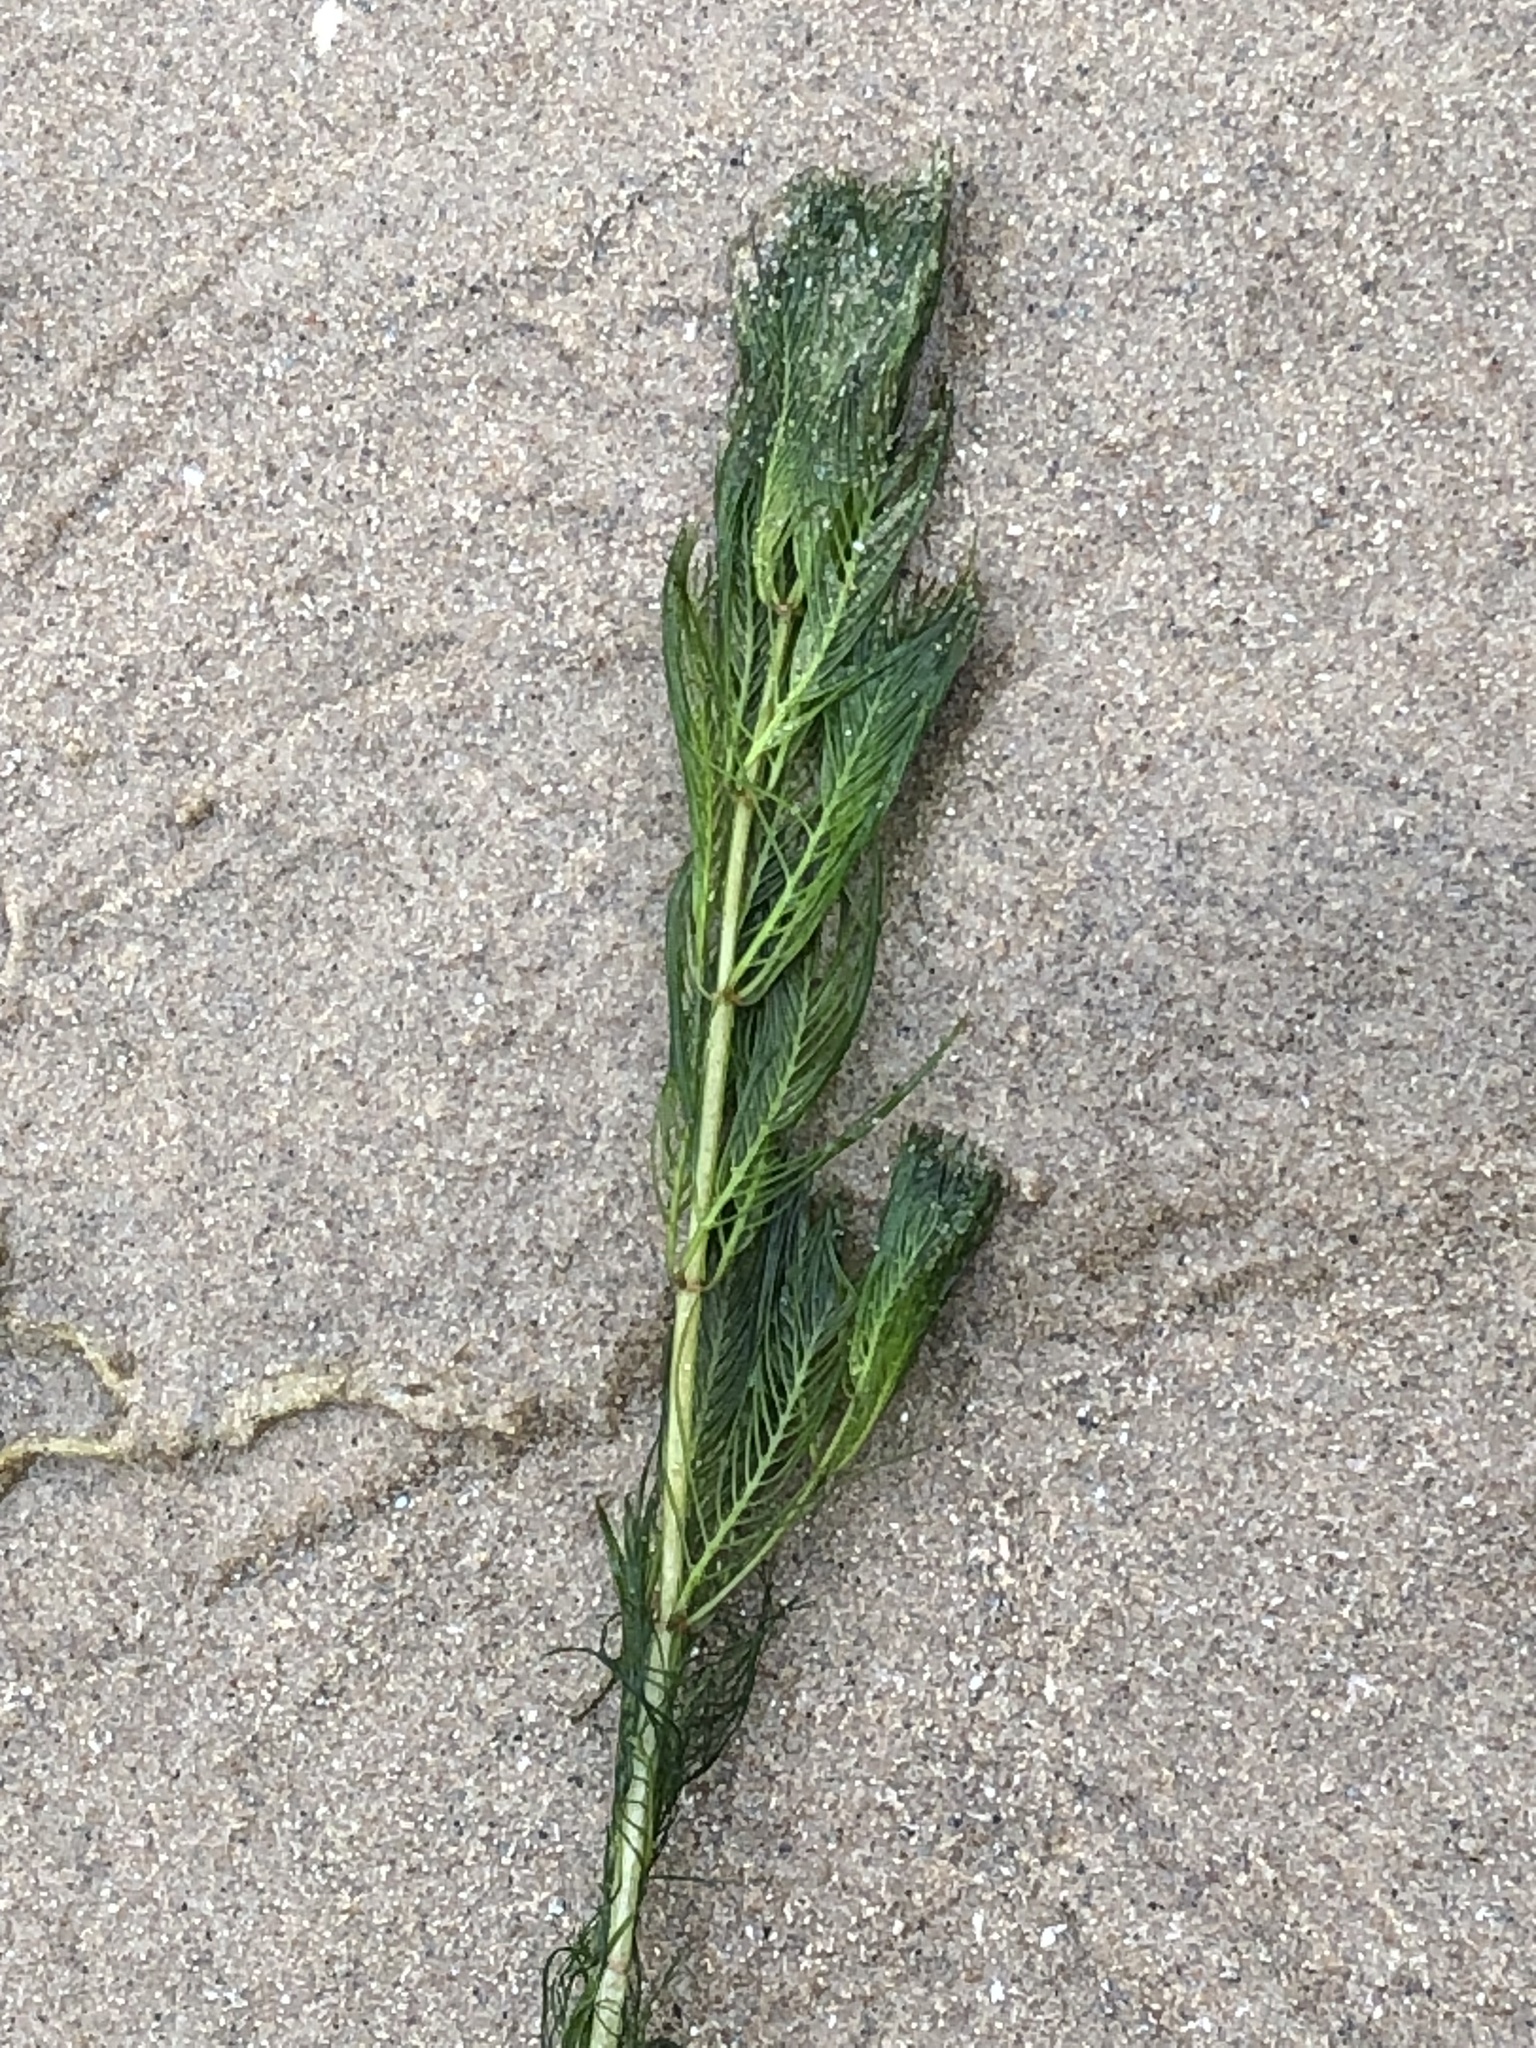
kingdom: Plantae
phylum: Tracheophyta
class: Magnoliopsida
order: Saxifragales
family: Haloragaceae
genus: Myriophyllum
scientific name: Myriophyllum spicatum
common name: Spiked water-milfoil
